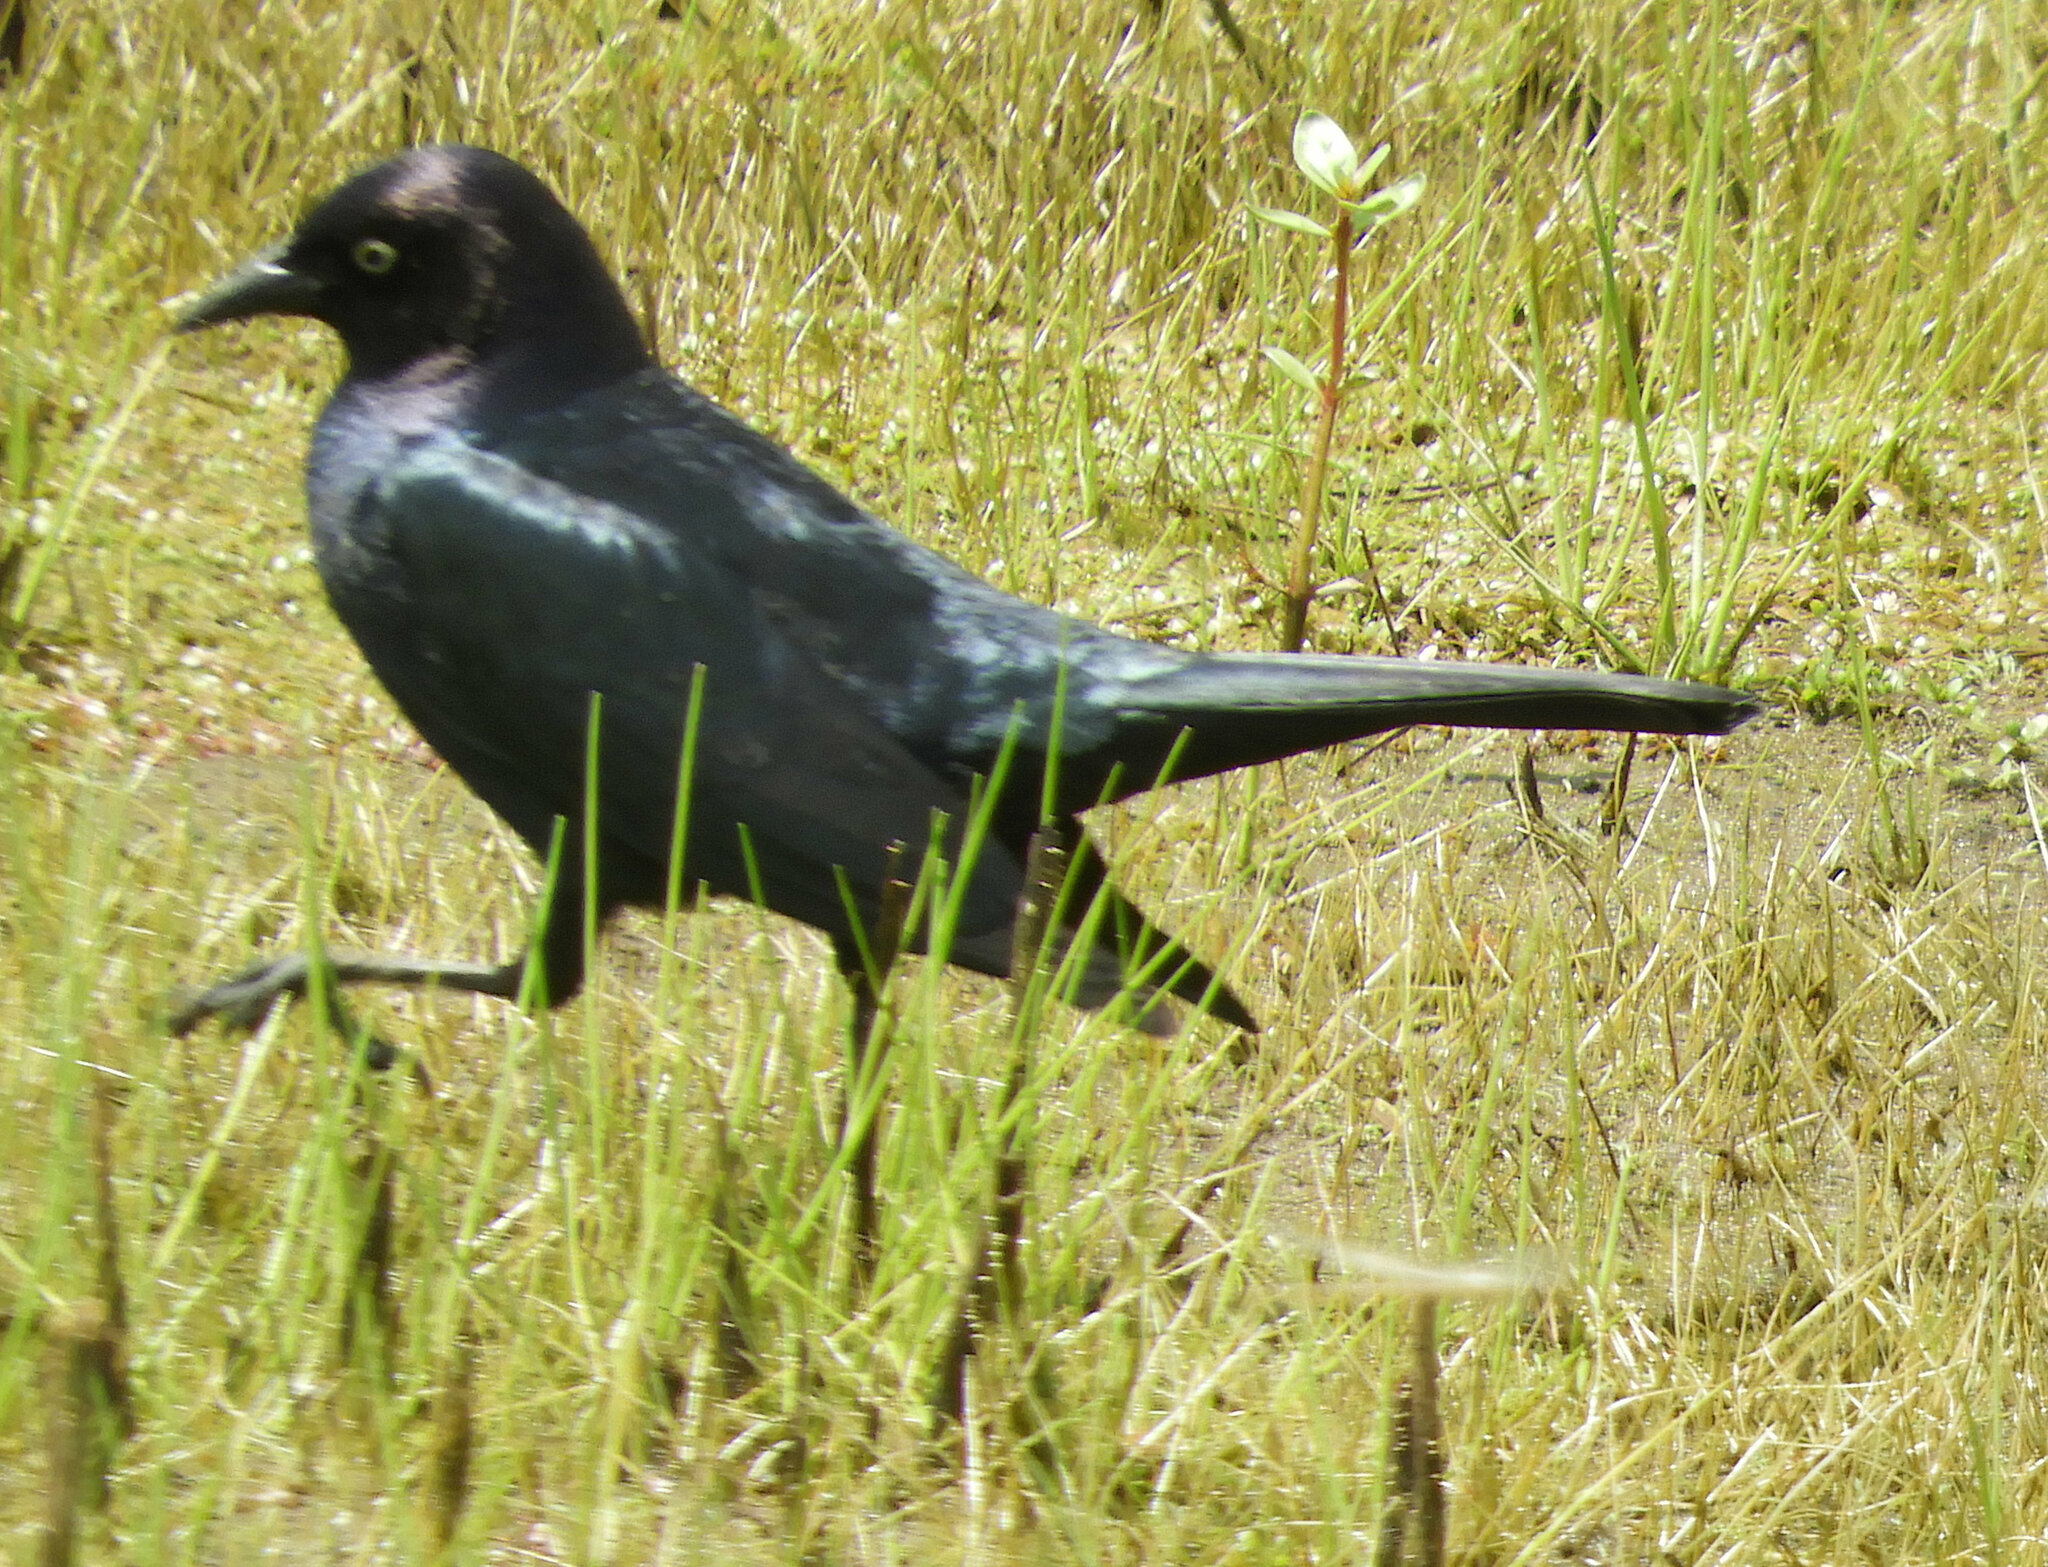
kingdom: Animalia
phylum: Chordata
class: Aves
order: Passeriformes
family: Icteridae
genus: Euphagus
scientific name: Euphagus cyanocephalus
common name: Brewer's blackbird
